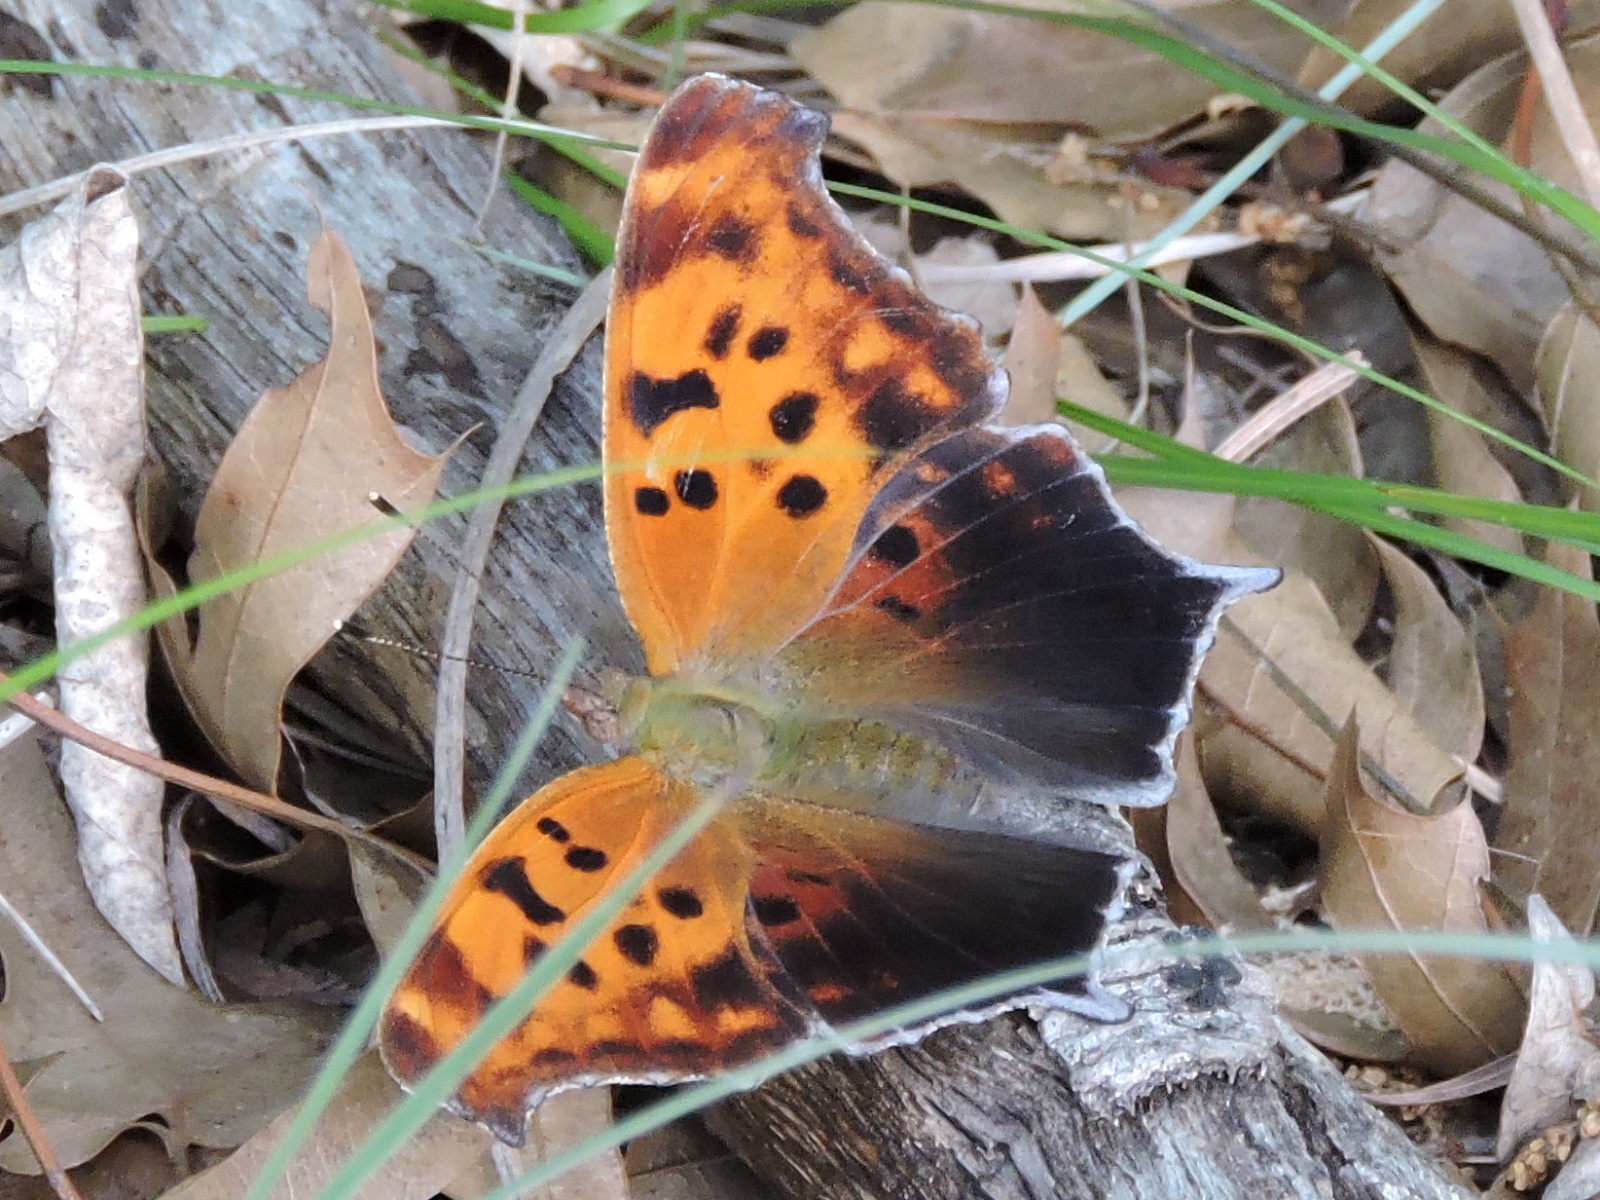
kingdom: Animalia
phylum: Arthropoda
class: Insecta
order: Lepidoptera
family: Nymphalidae
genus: Polygonia
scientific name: Polygonia interrogationis
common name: Question mark
